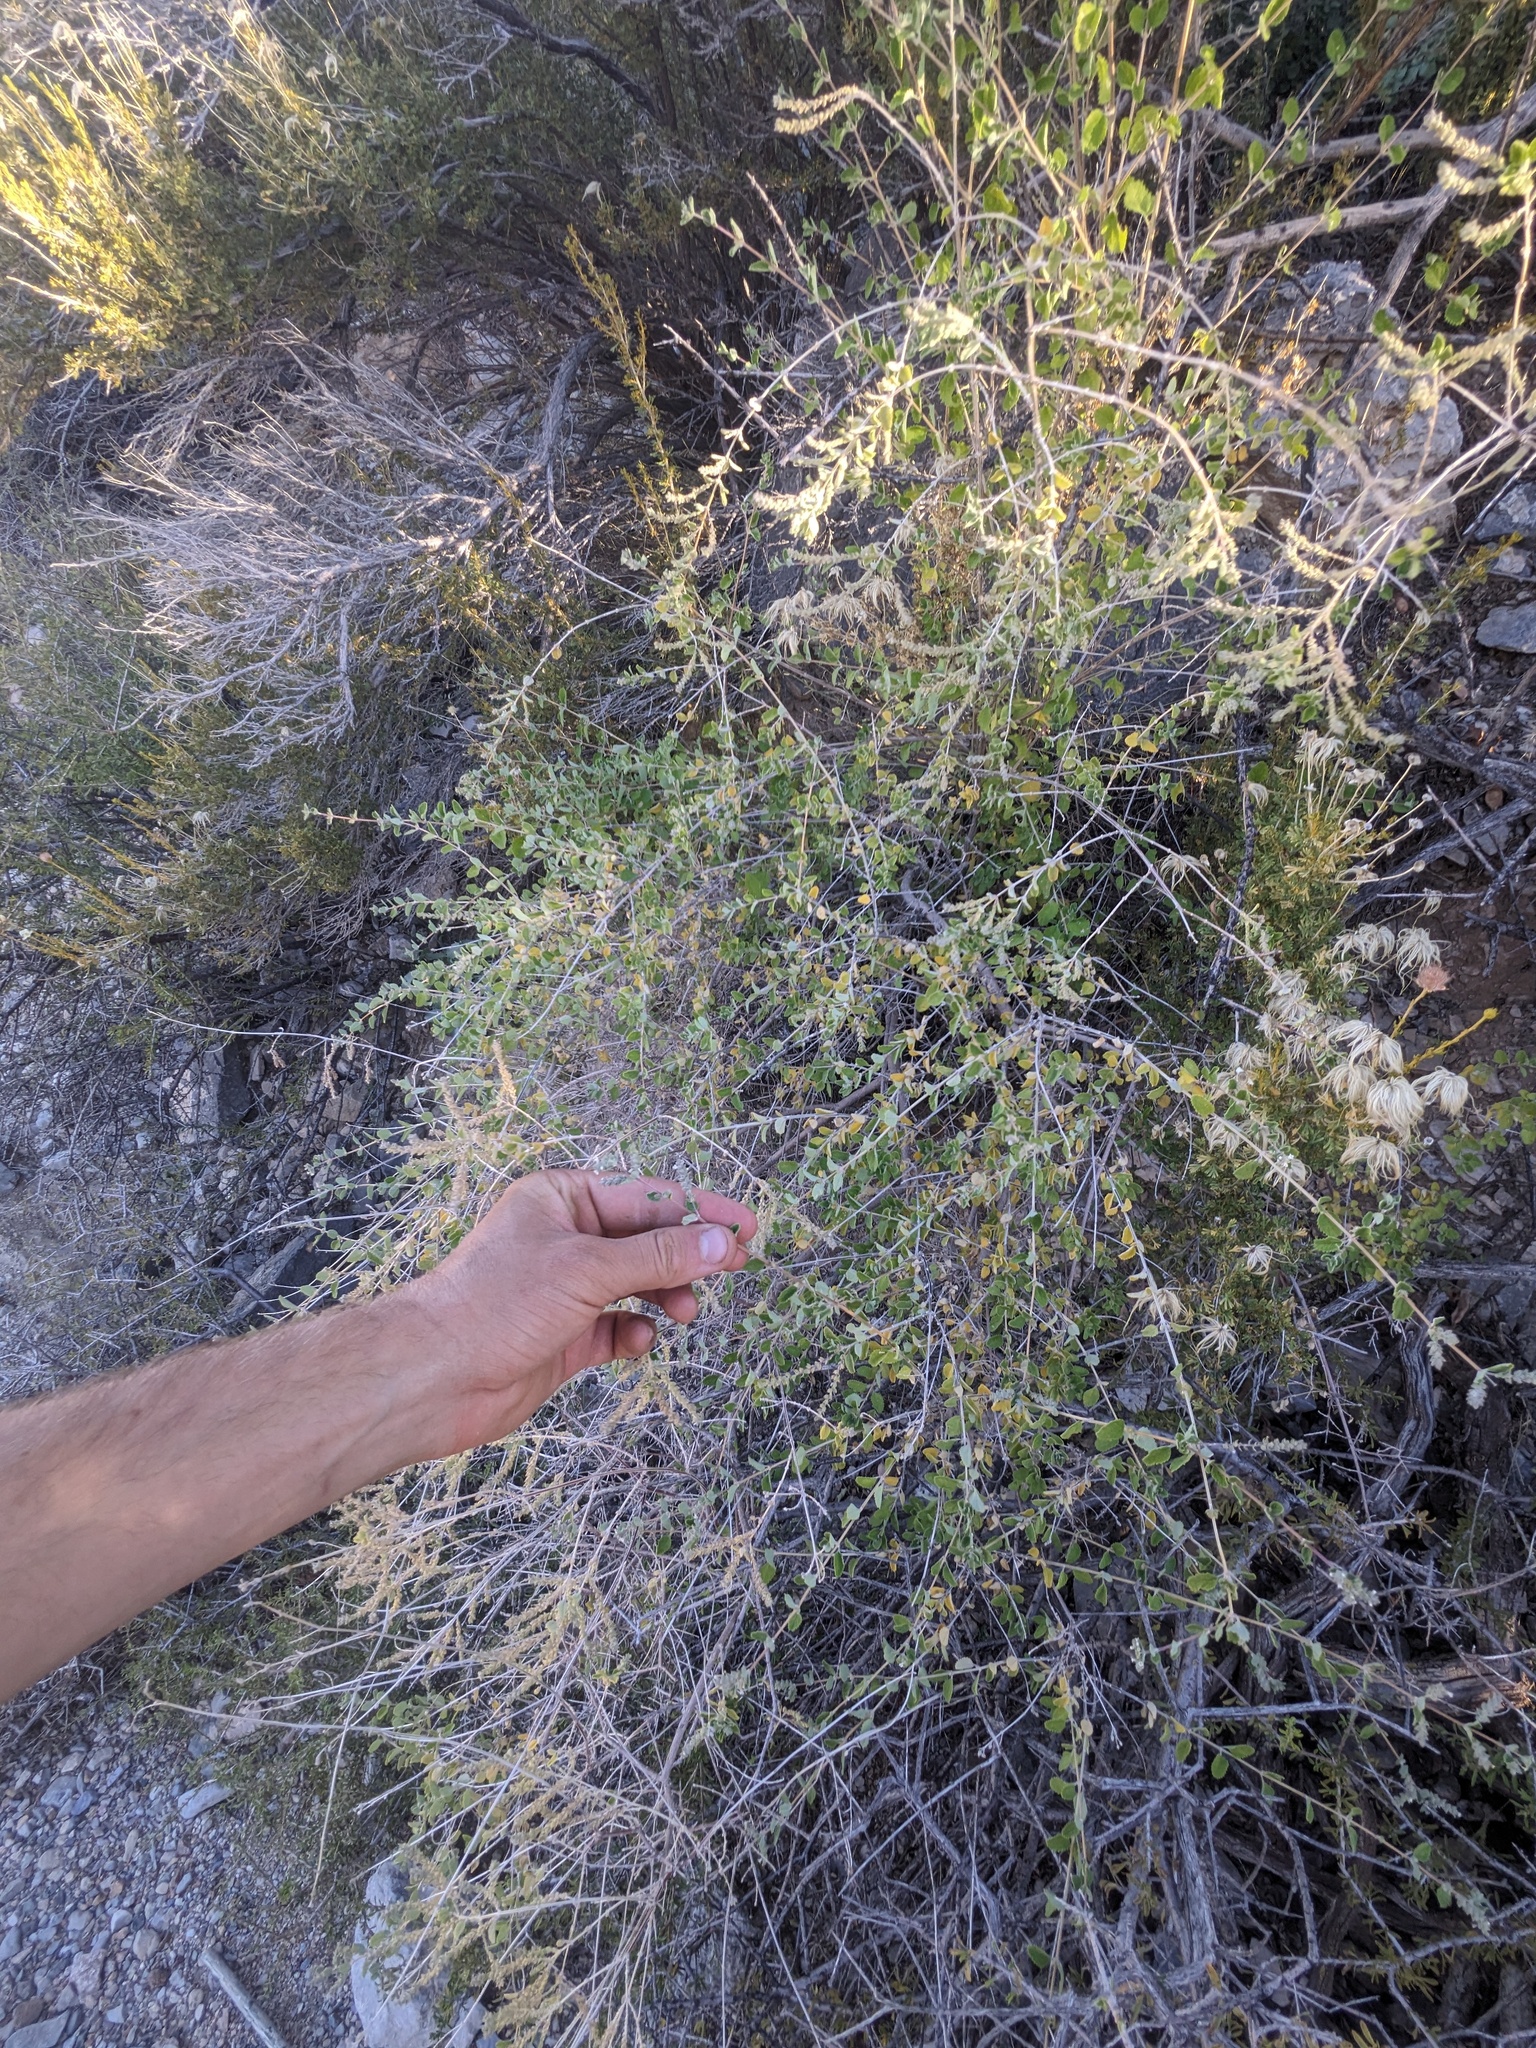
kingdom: Plantae
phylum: Tracheophyta
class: Magnoliopsida
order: Lamiales
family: Verbenaceae
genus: Aloysia
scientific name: Aloysia wrightii
